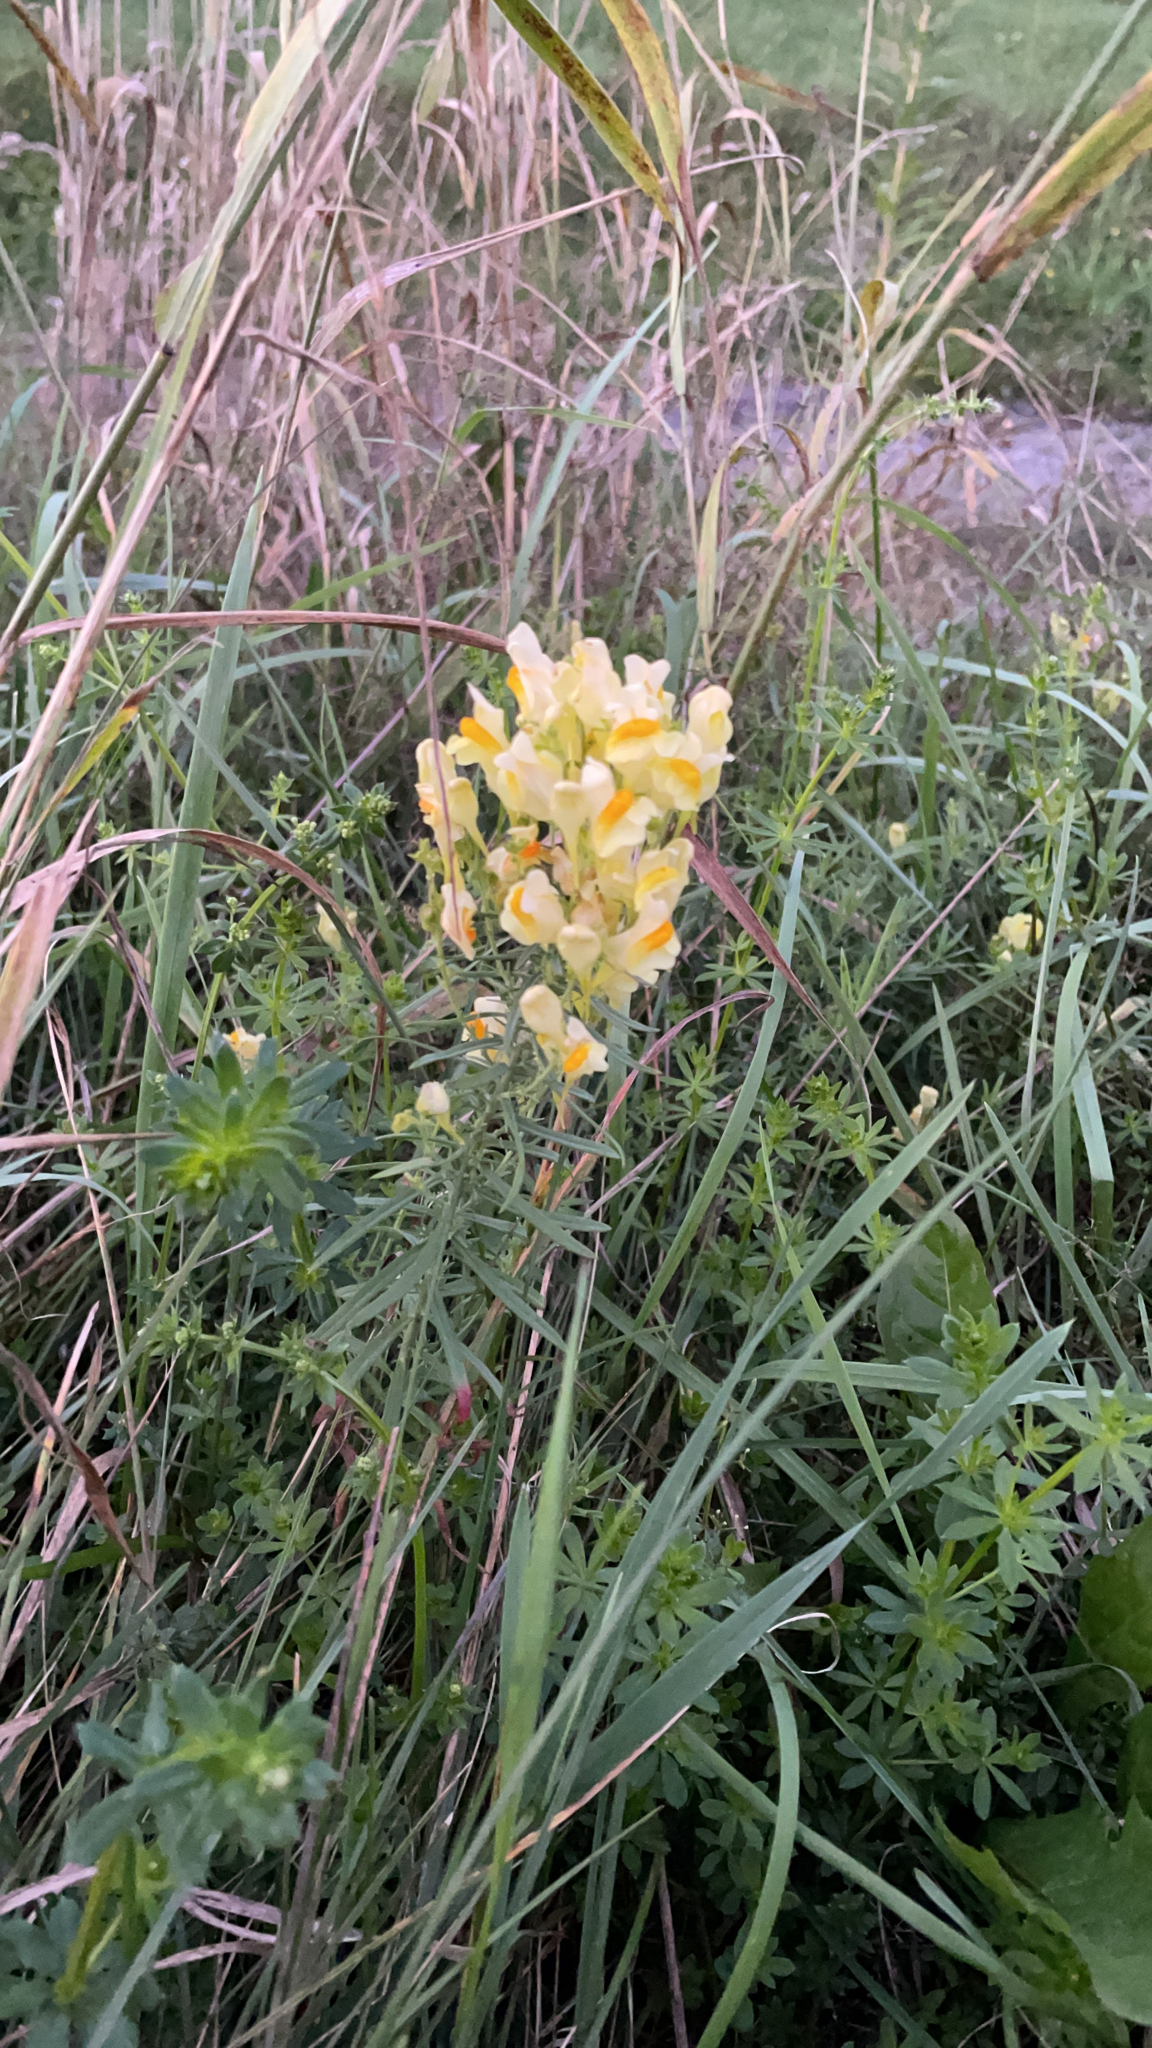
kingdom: Plantae
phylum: Tracheophyta
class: Magnoliopsida
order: Lamiales
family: Plantaginaceae
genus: Linaria
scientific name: Linaria vulgaris
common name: Butter and eggs
